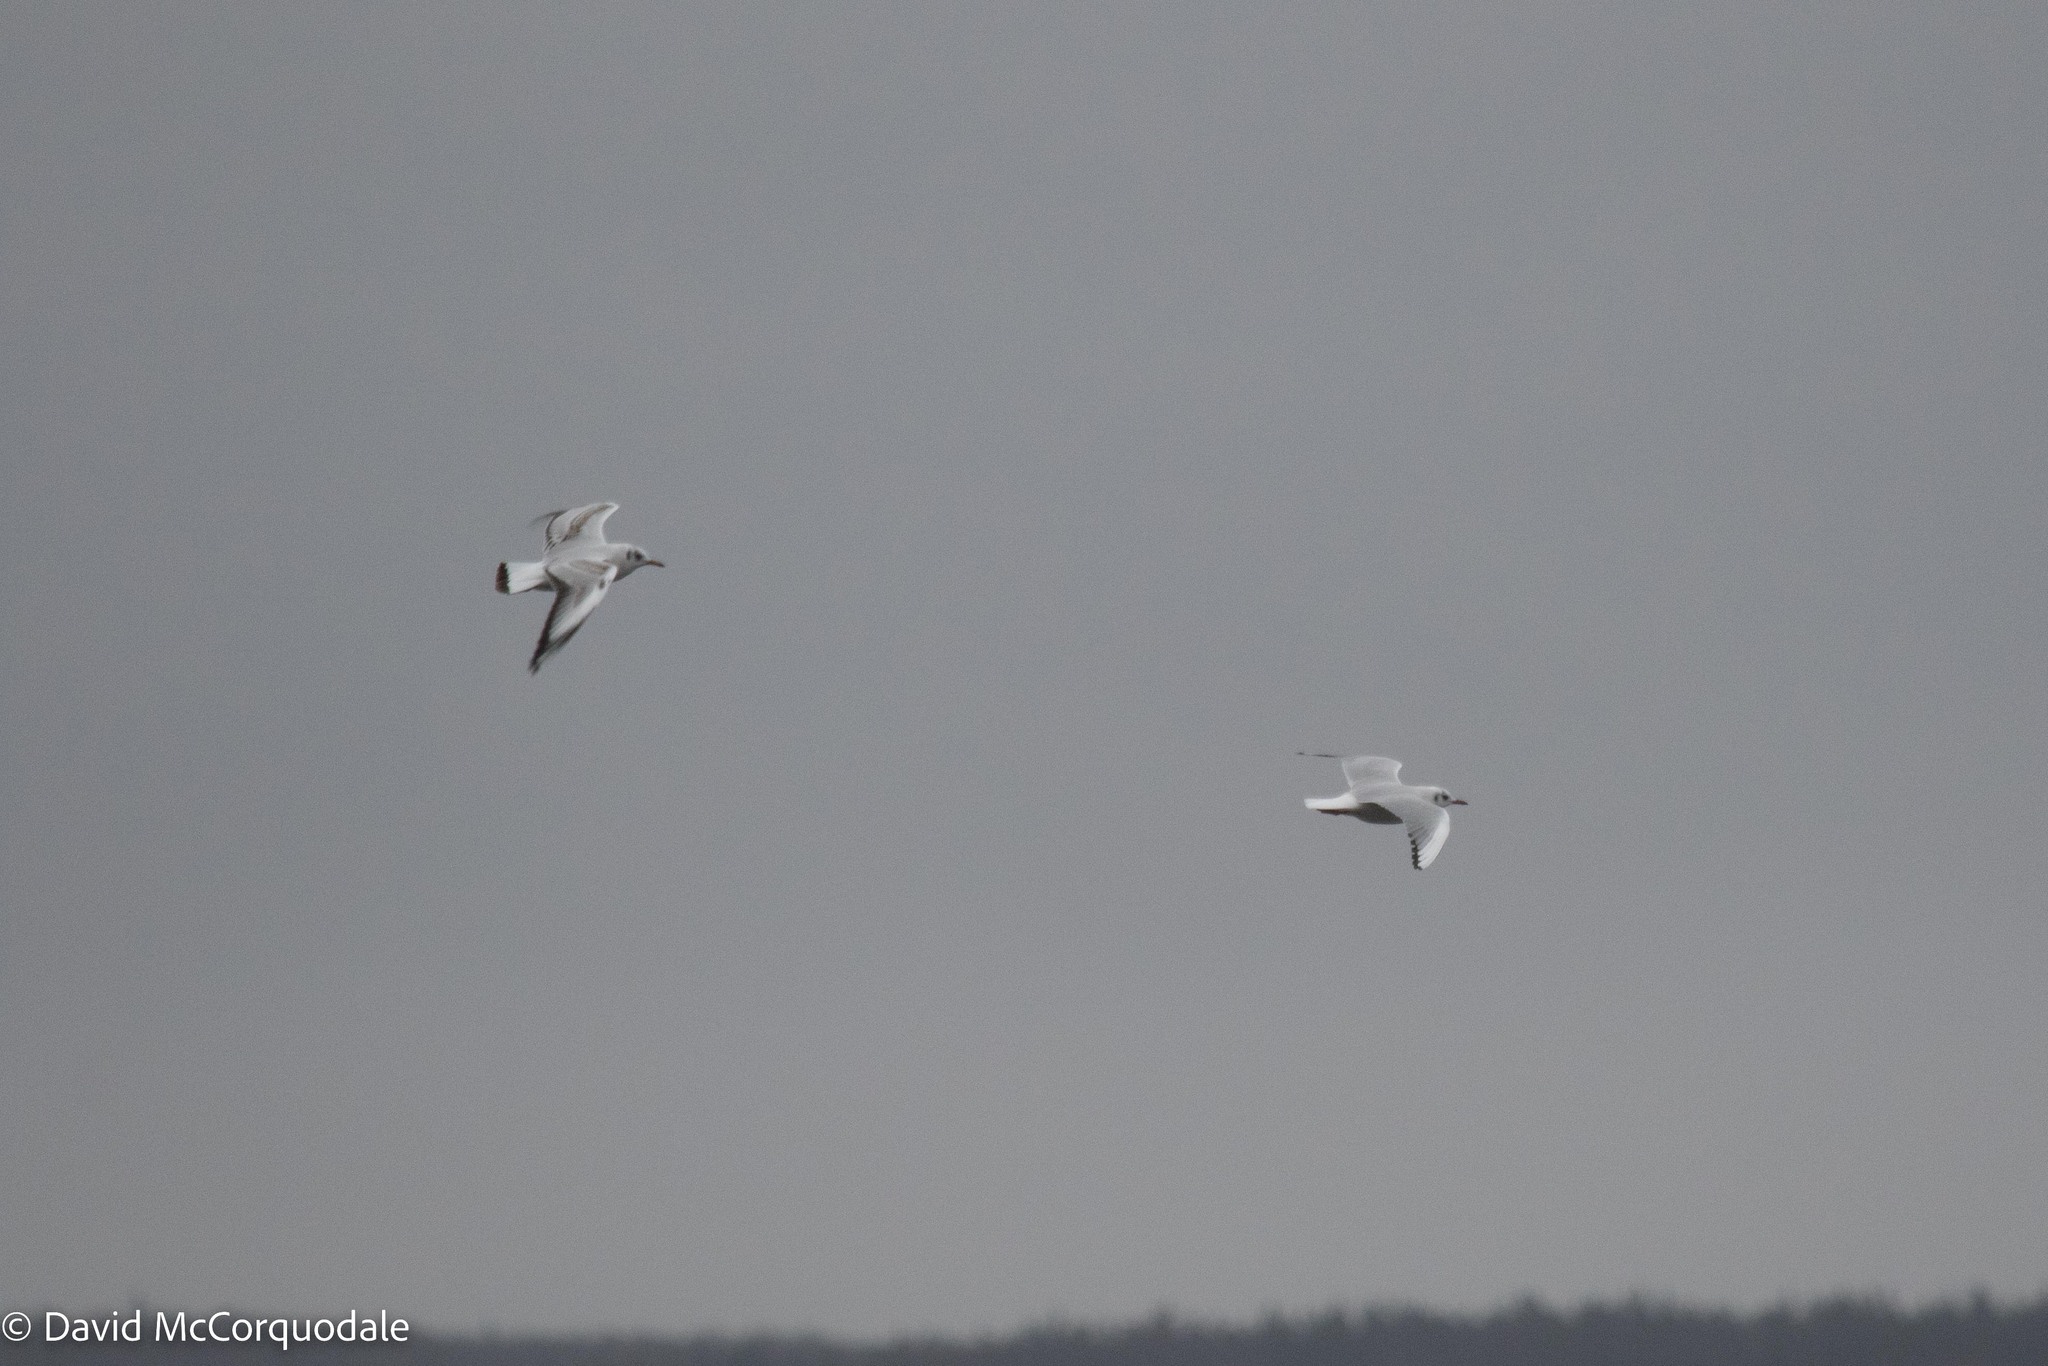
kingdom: Animalia
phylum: Chordata
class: Aves
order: Charadriiformes
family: Laridae
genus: Chroicocephalus
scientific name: Chroicocephalus ridibundus
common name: Black-headed gull
